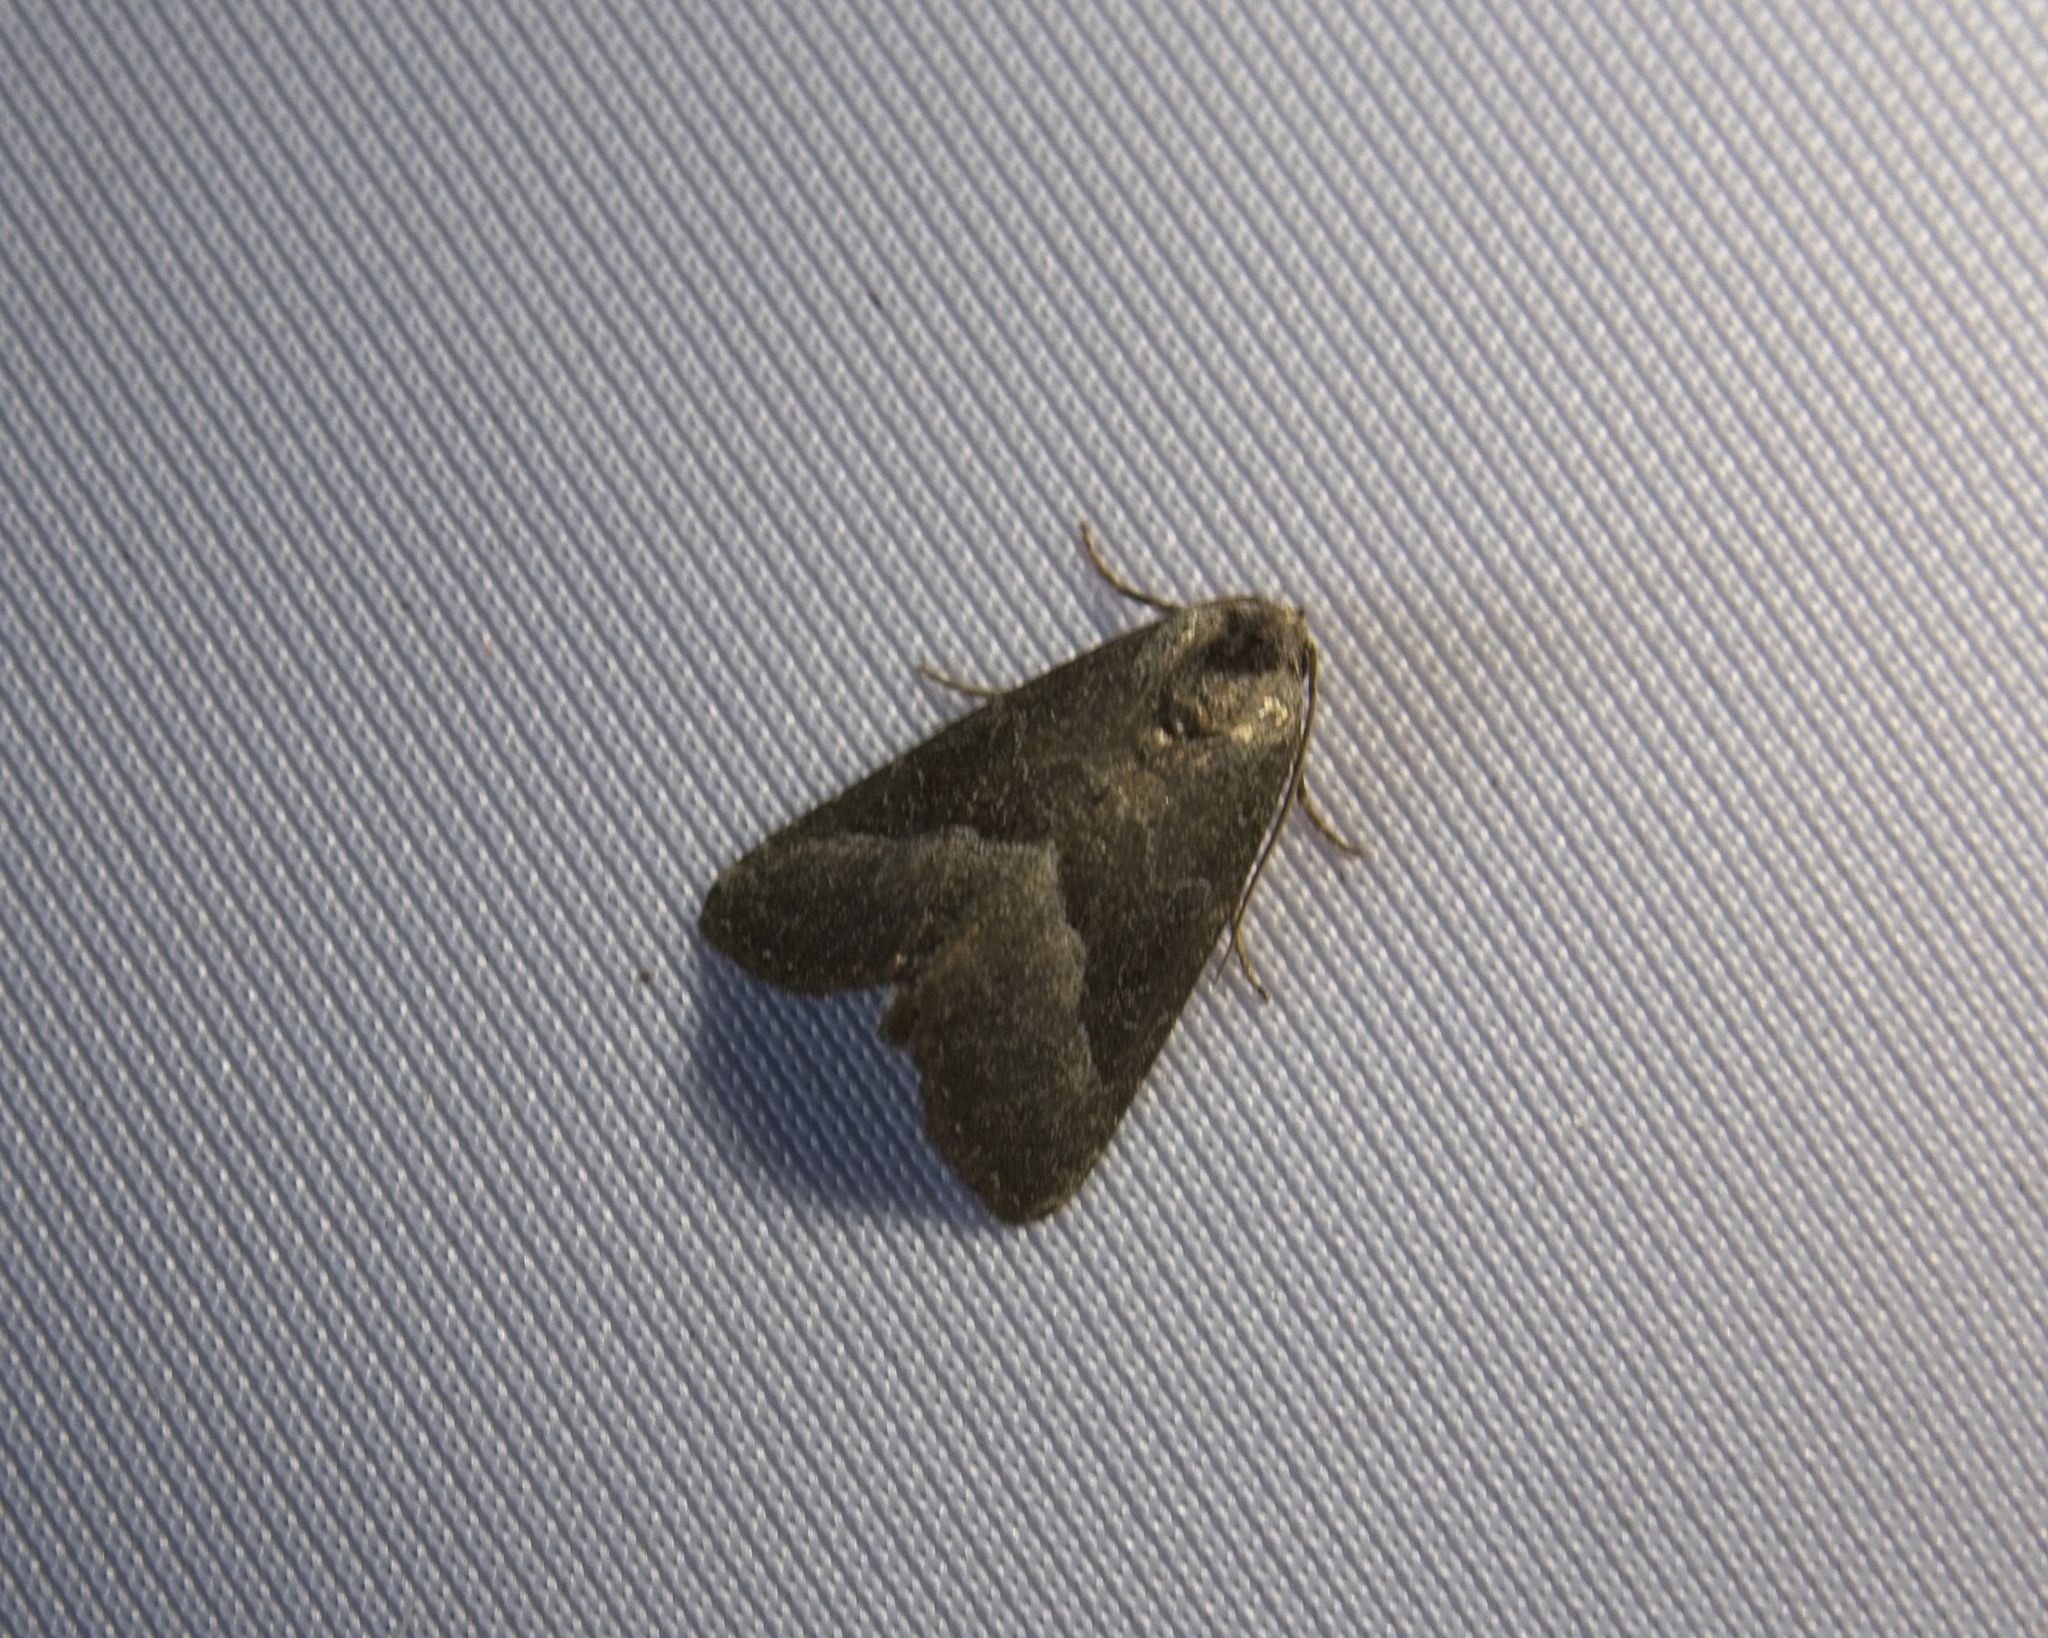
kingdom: Animalia
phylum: Arthropoda
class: Insecta
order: Lepidoptera
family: Noctuidae
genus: Ogdoconta
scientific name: Ogdoconta cinereola
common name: Common pinkband
